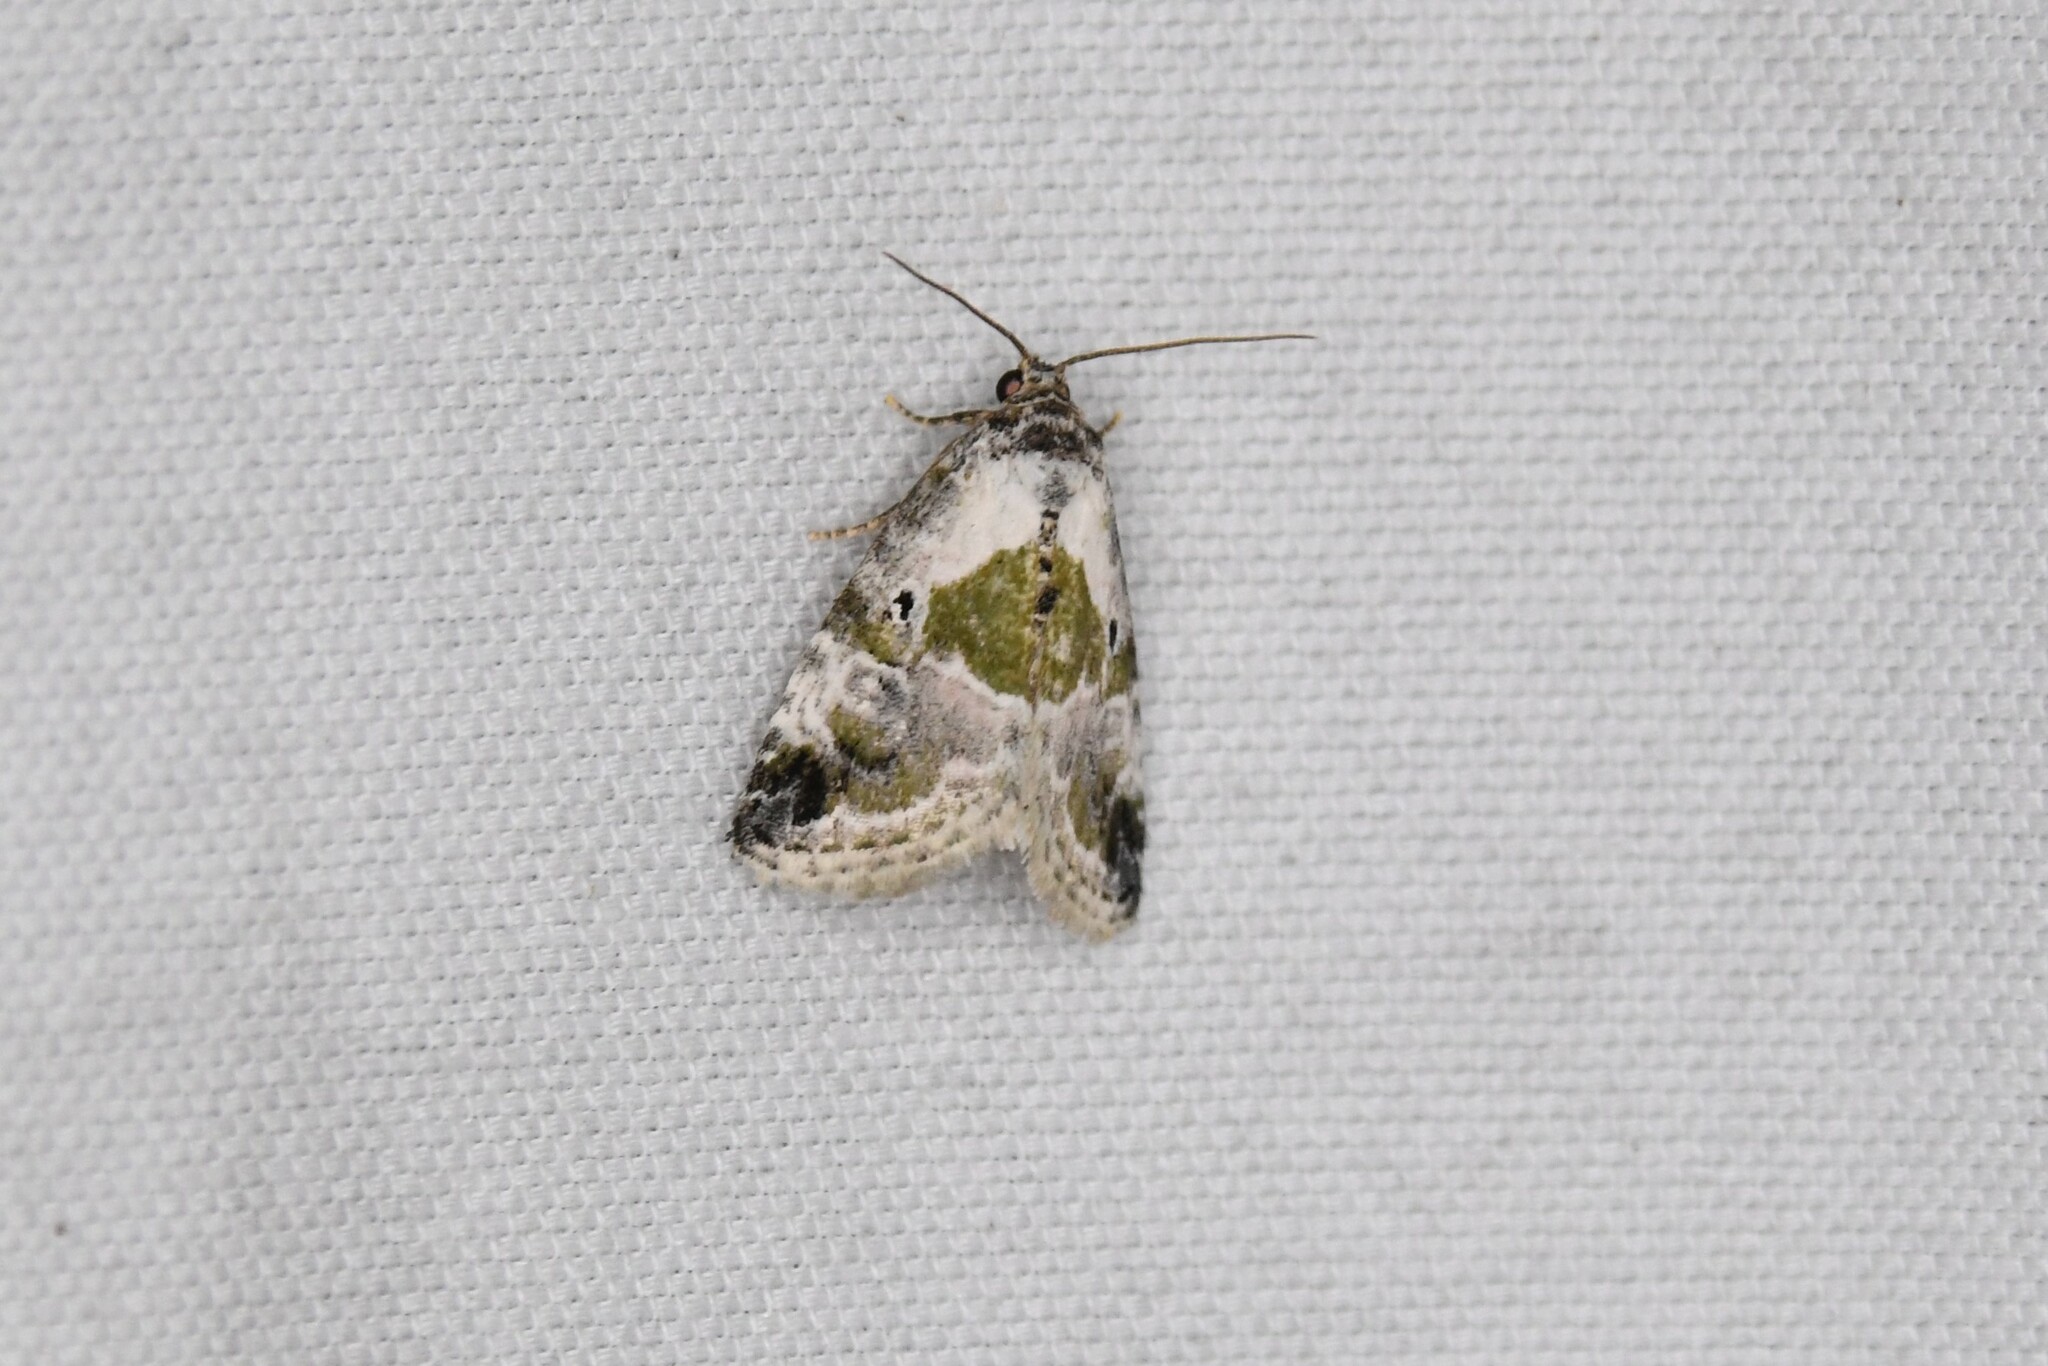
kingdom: Animalia
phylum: Arthropoda
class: Insecta
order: Lepidoptera
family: Noctuidae
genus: Maliattha
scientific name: Maliattha synochitis
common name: Black-dotted glyph
